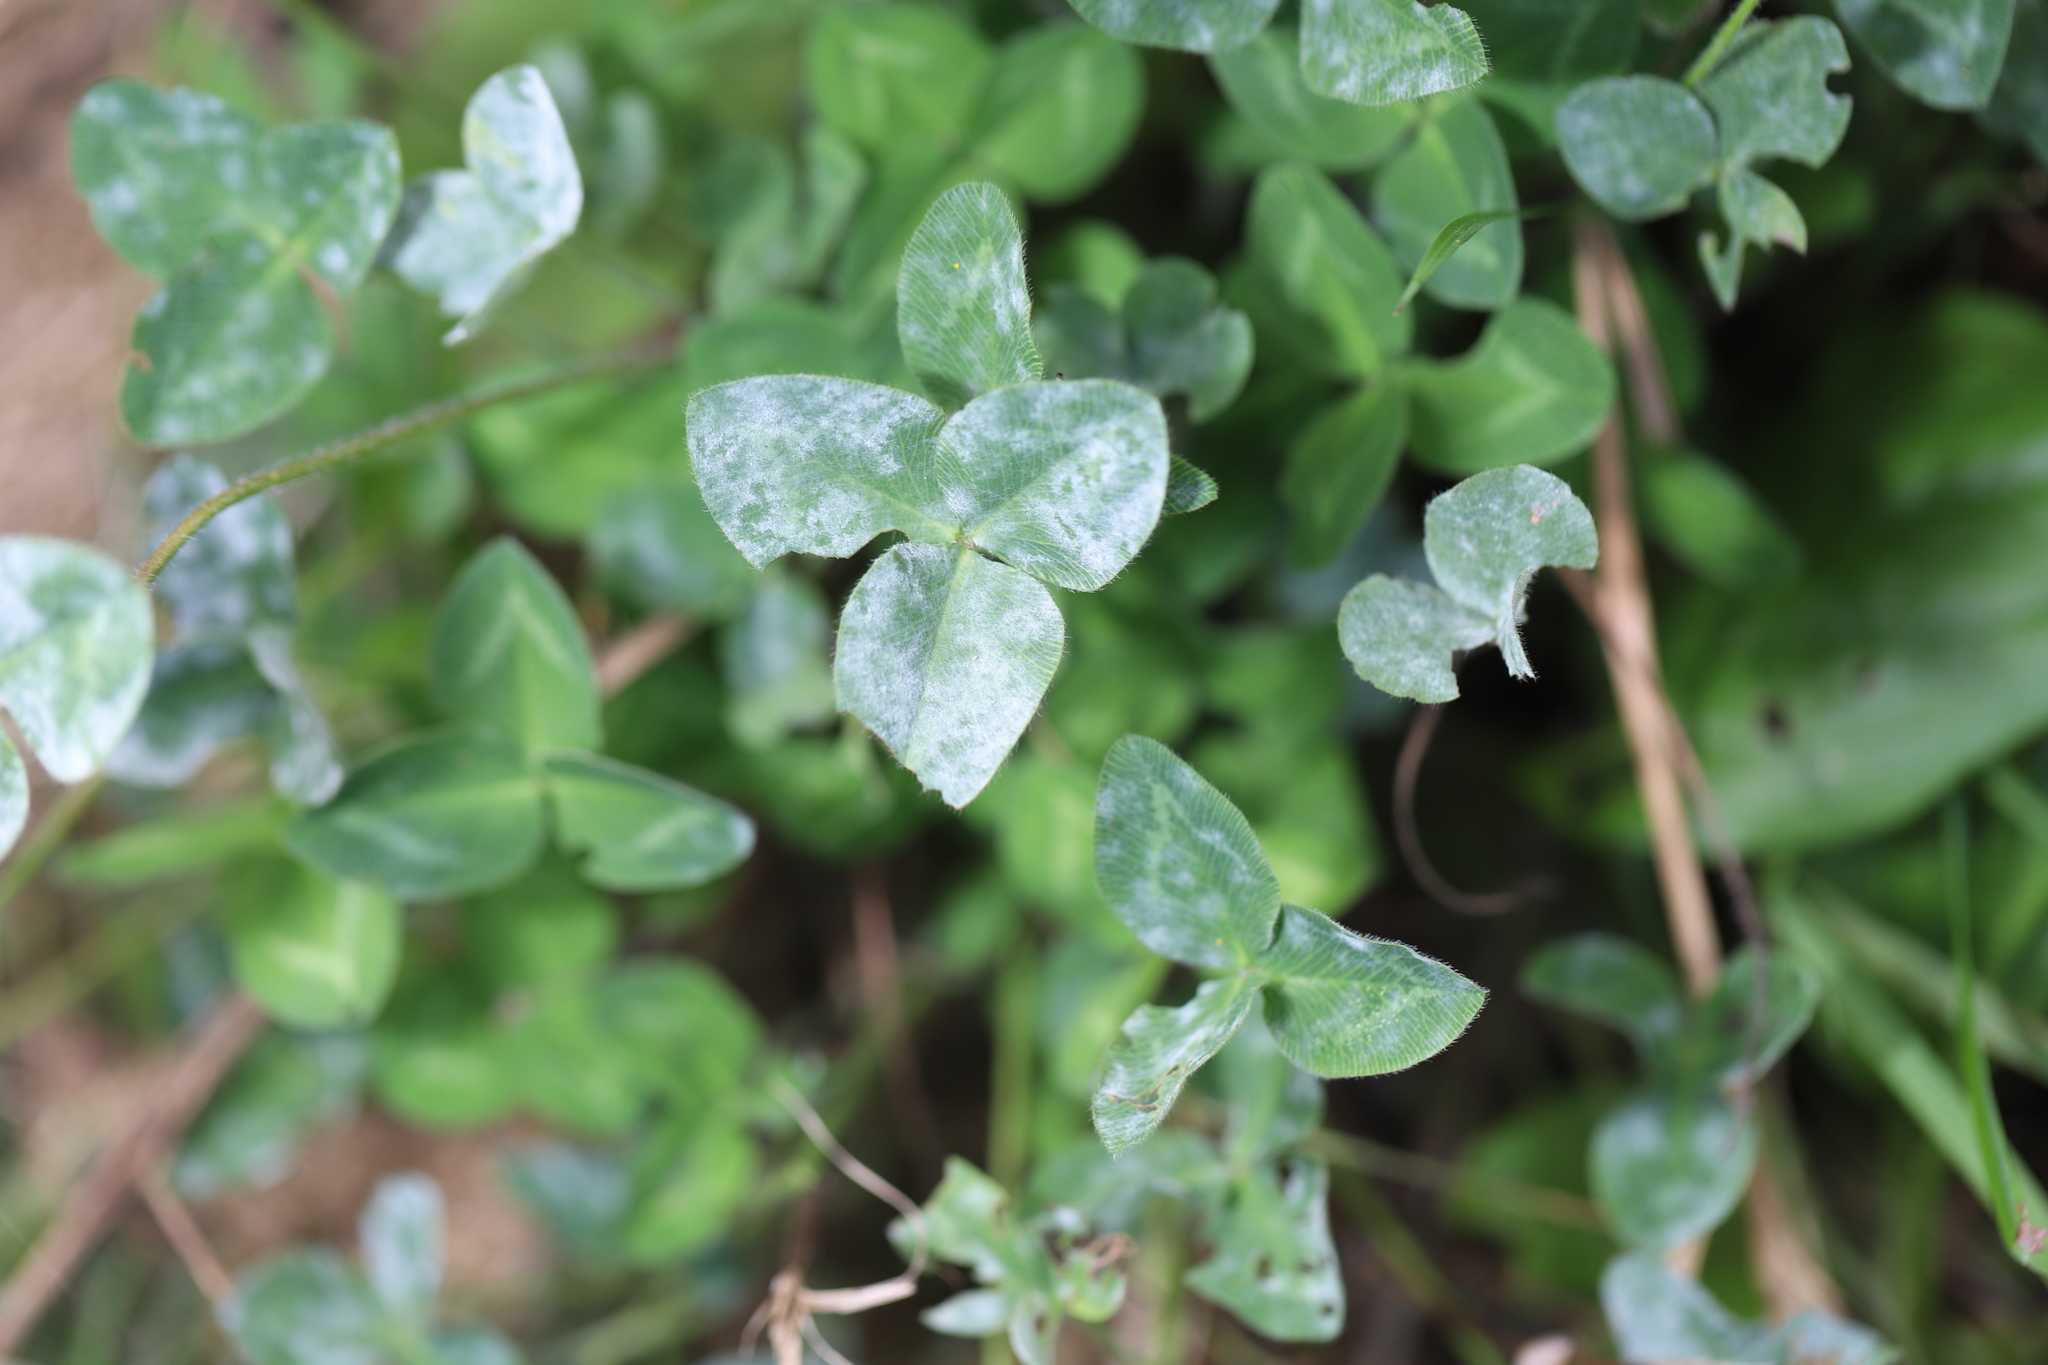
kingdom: Fungi
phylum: Ascomycota
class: Leotiomycetes
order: Helotiales
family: Erysiphaceae
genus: Erysiphe
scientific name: Erysiphe trifoliorum
